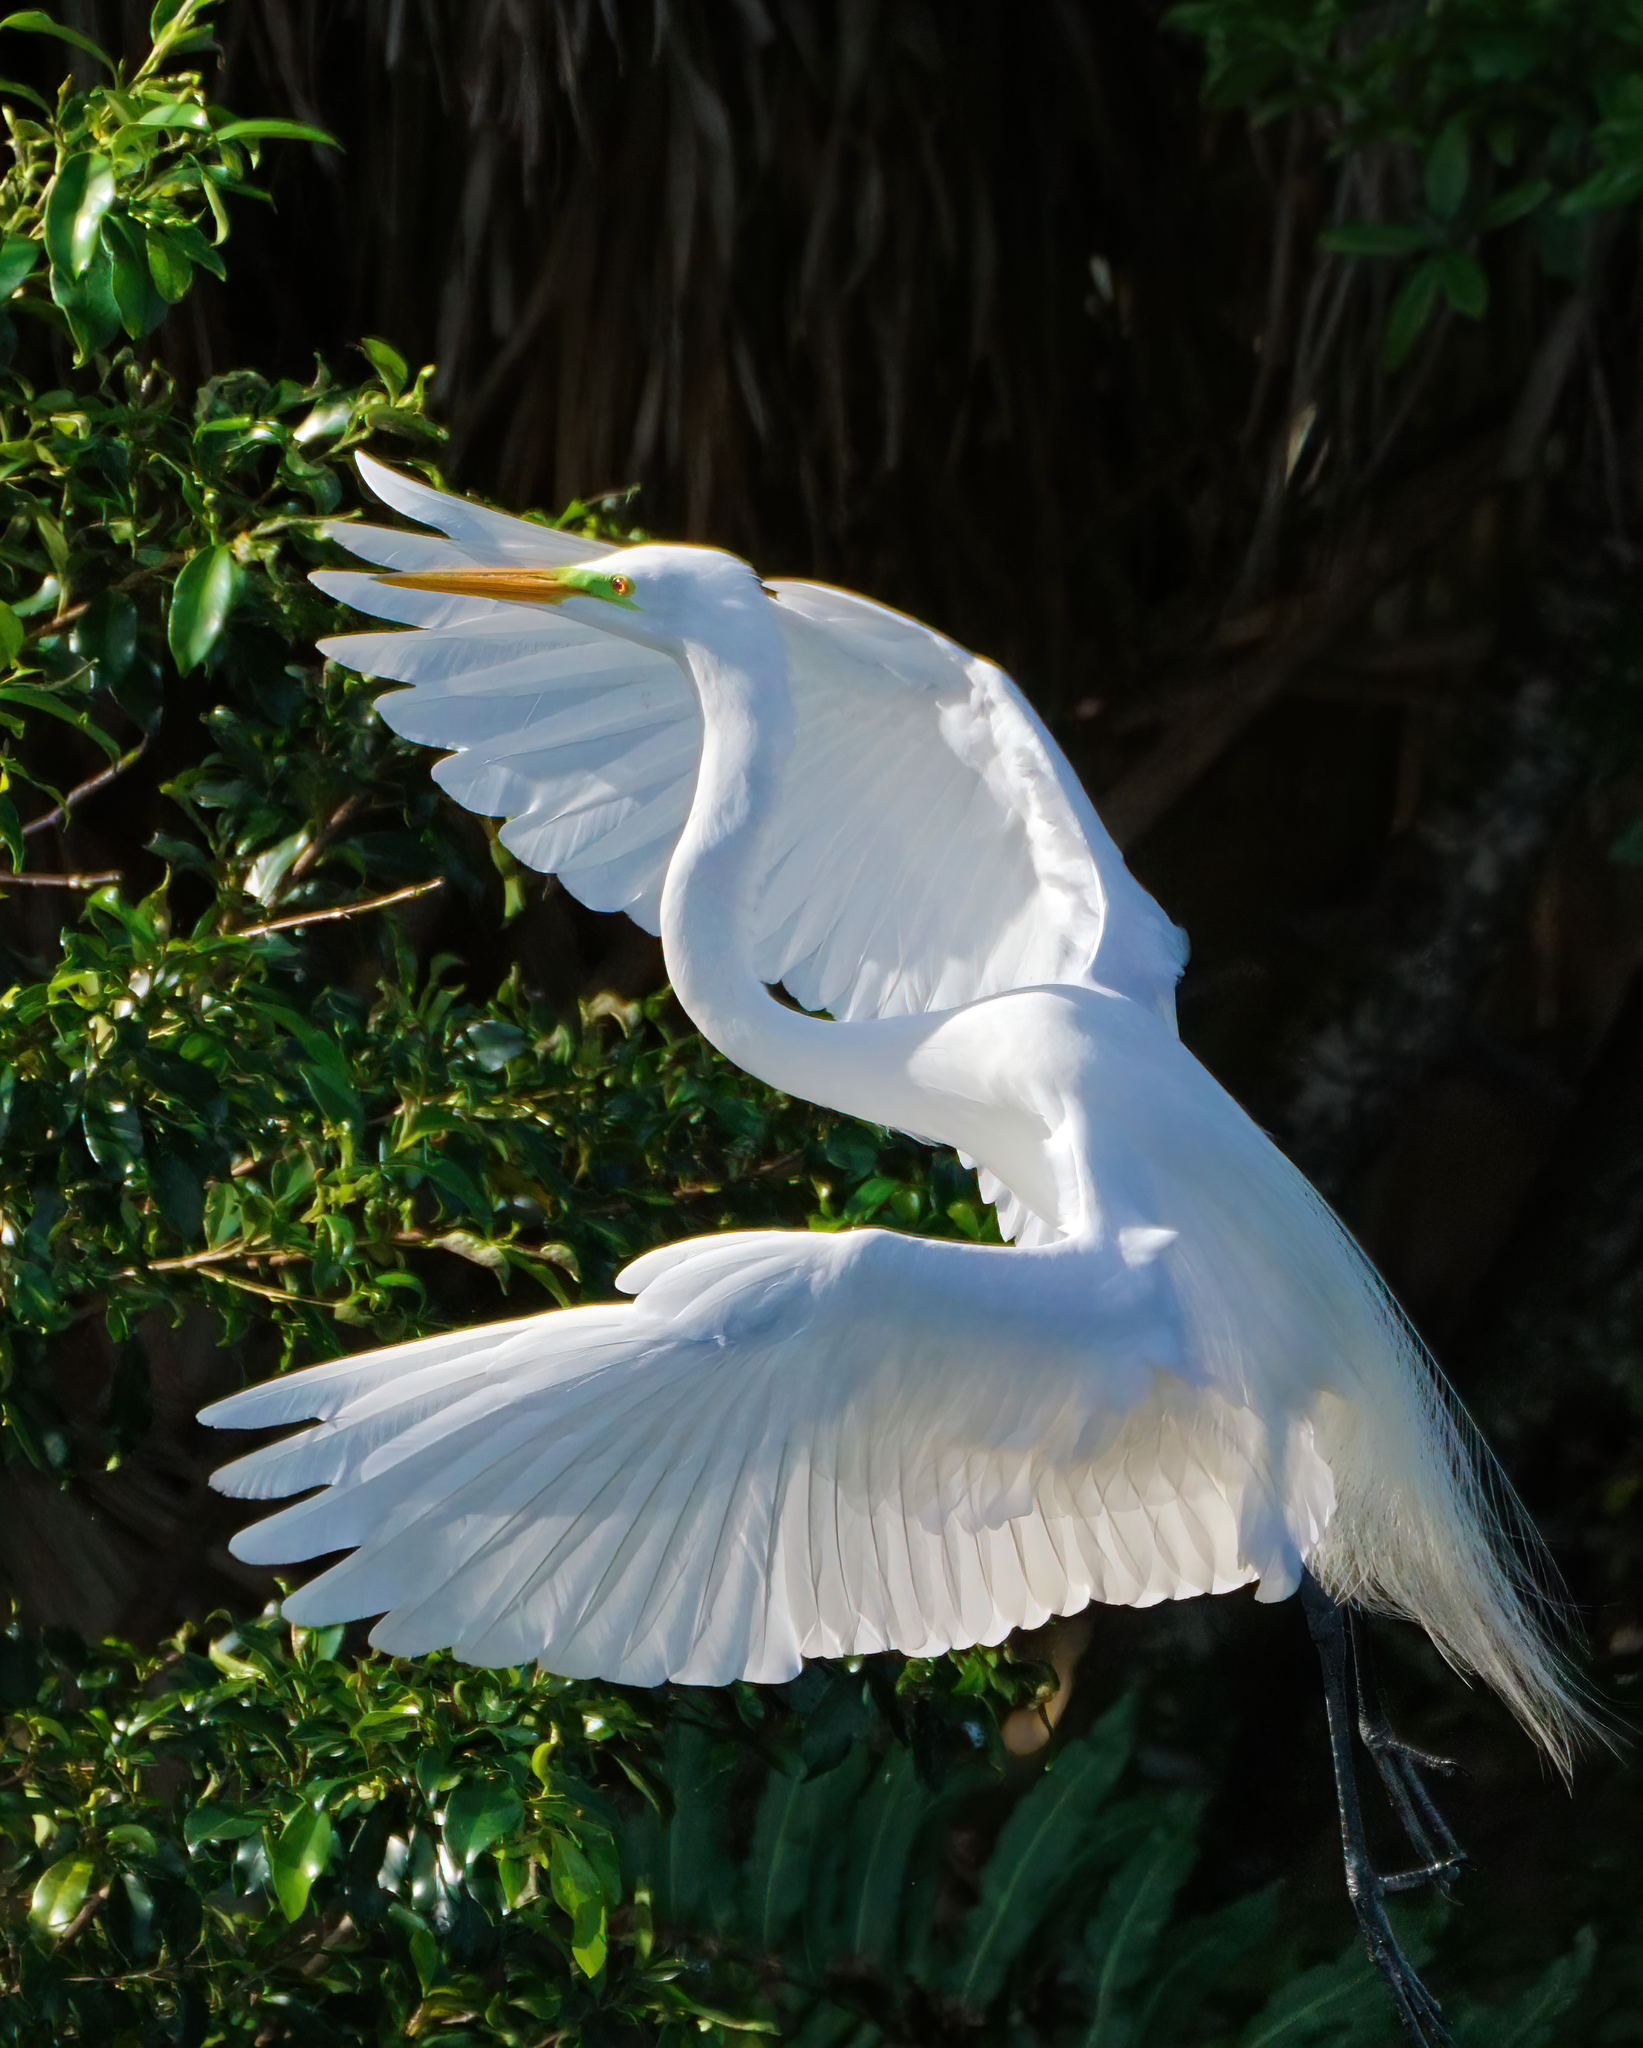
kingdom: Animalia
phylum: Chordata
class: Aves
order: Pelecaniformes
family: Ardeidae
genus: Ardea
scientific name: Ardea alba
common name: Great egret
